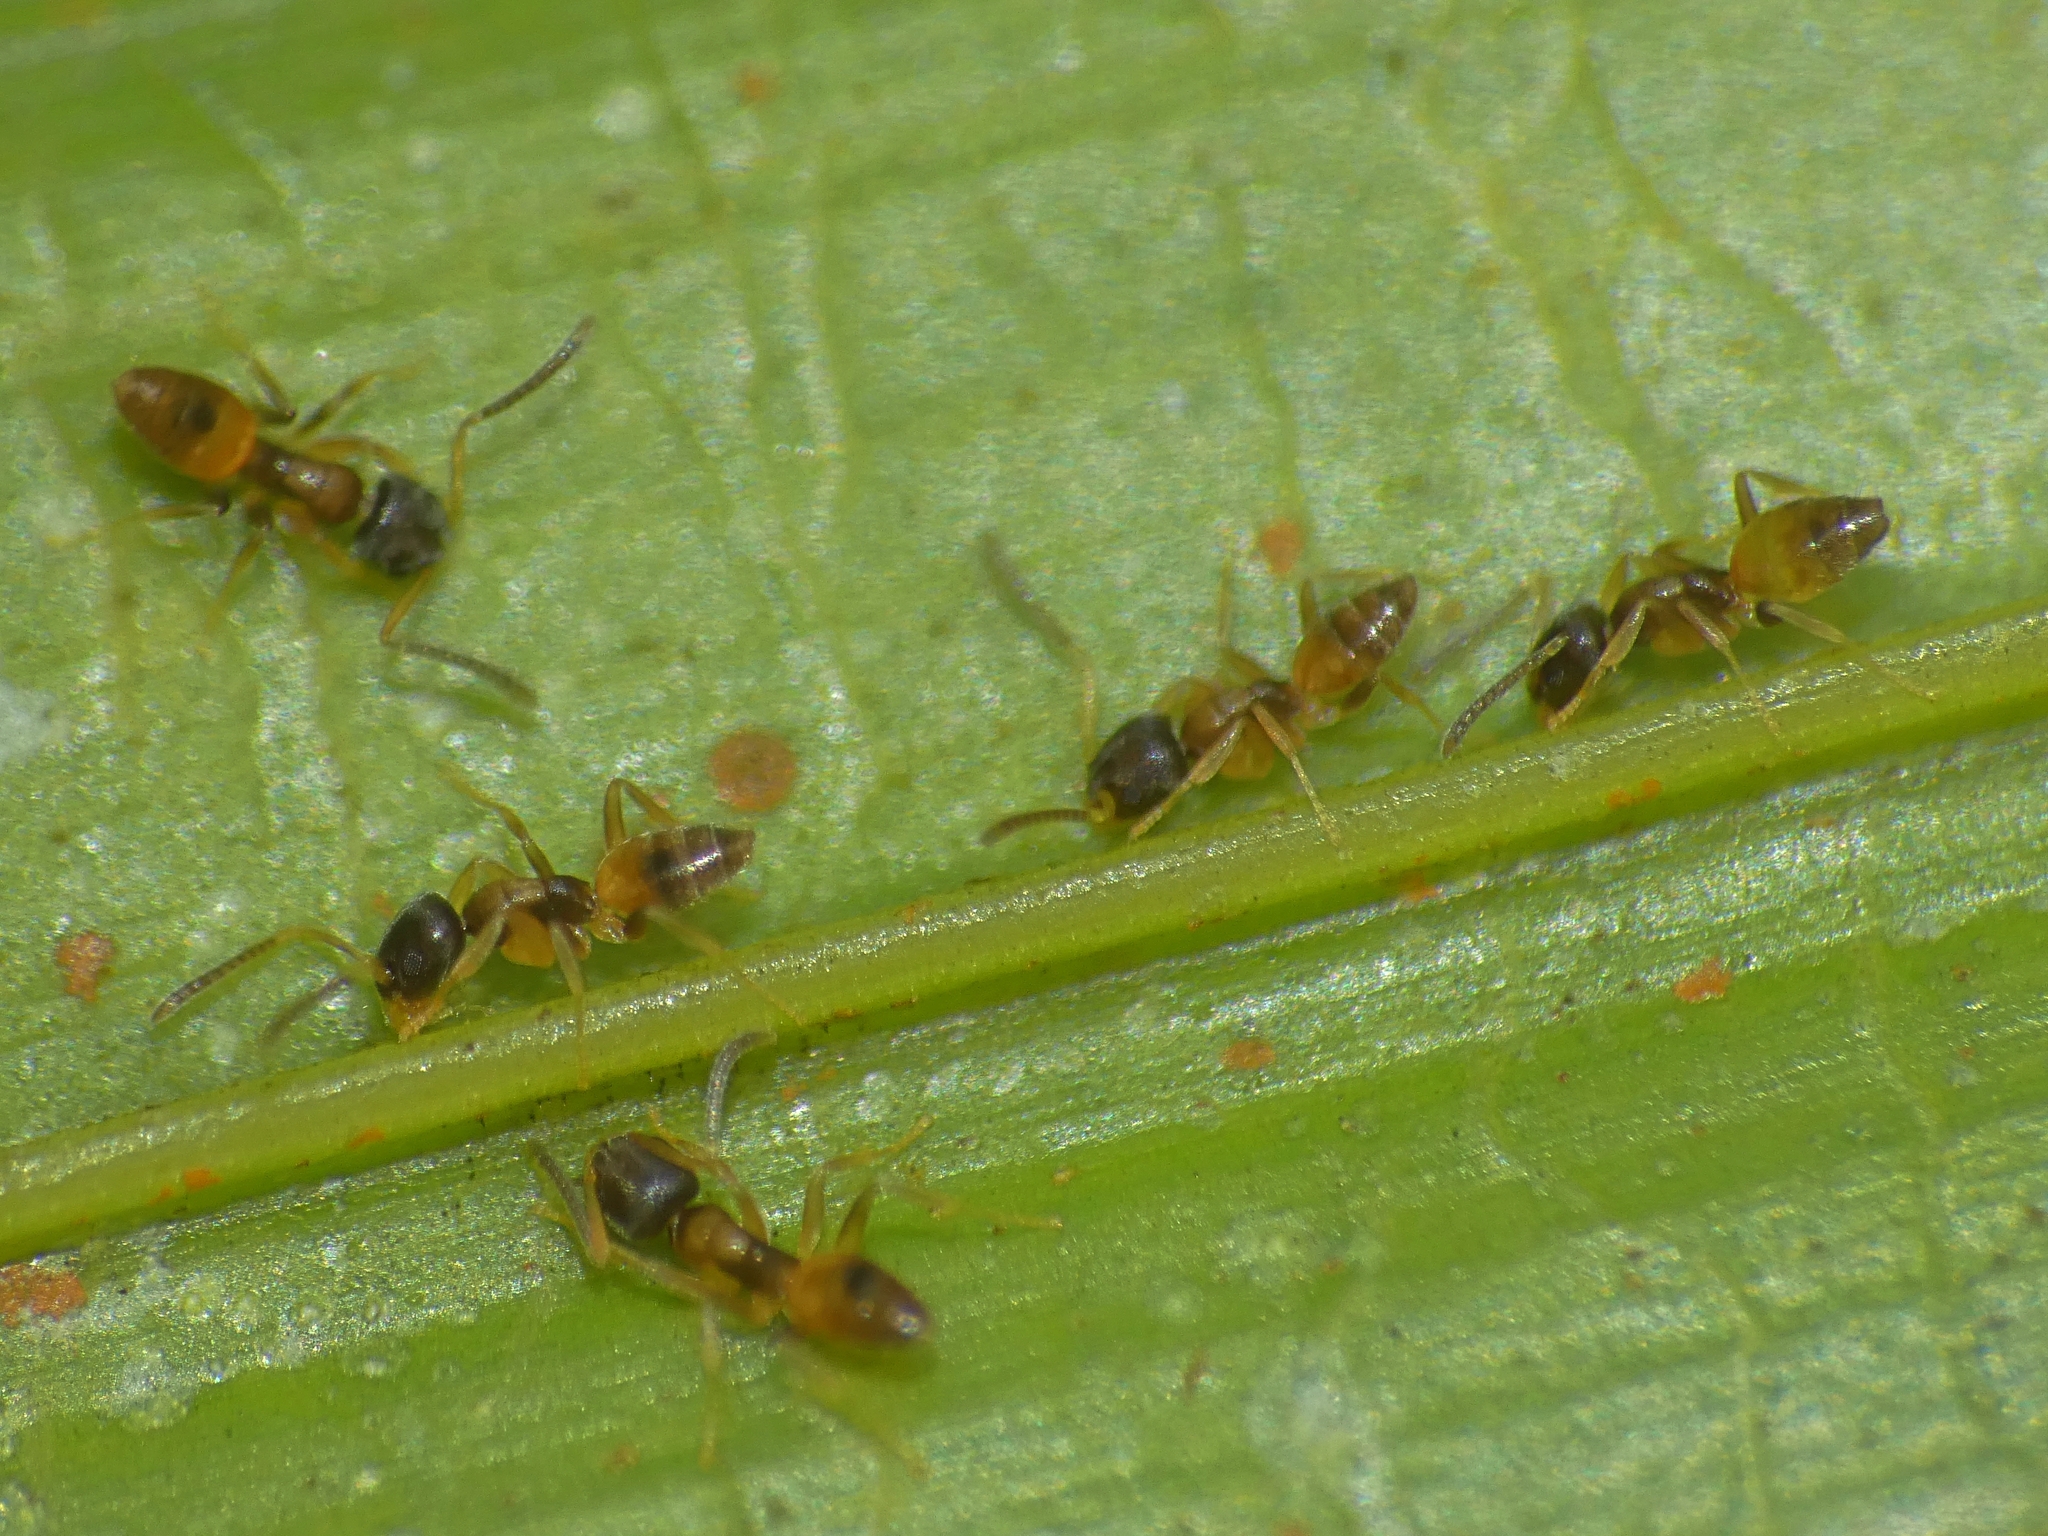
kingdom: Animalia
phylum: Arthropoda
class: Insecta
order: Hymenoptera
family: Formicidae
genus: Tapinoma
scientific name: Tapinoma melanocephalum
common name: Ghost ant
